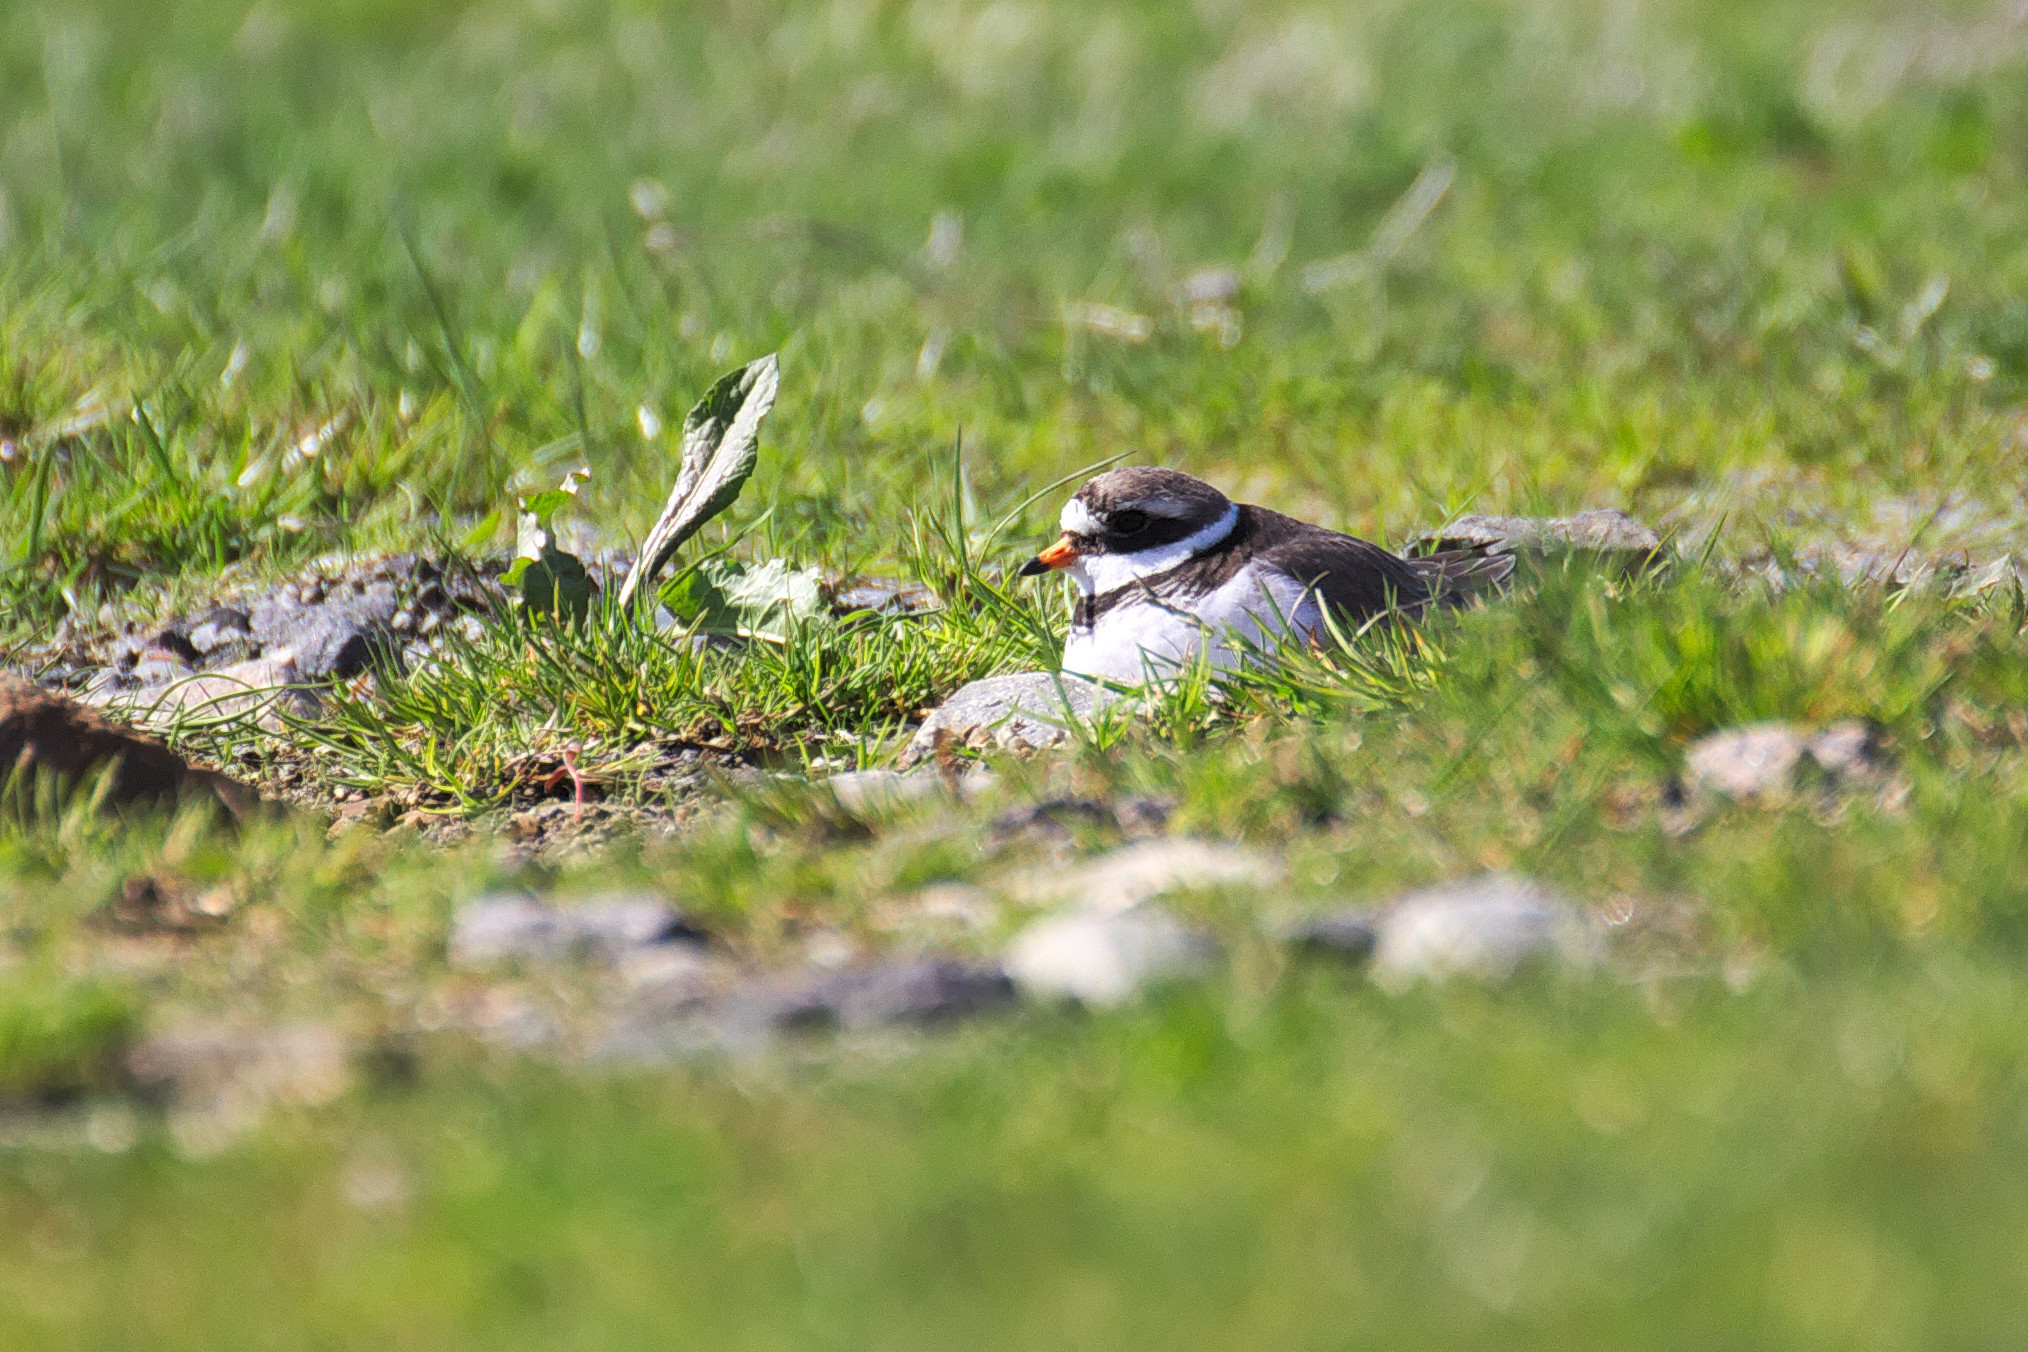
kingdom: Animalia
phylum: Chordata
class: Aves
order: Charadriiformes
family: Charadriidae
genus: Charadrius
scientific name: Charadrius hiaticula
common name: Common ringed plover
